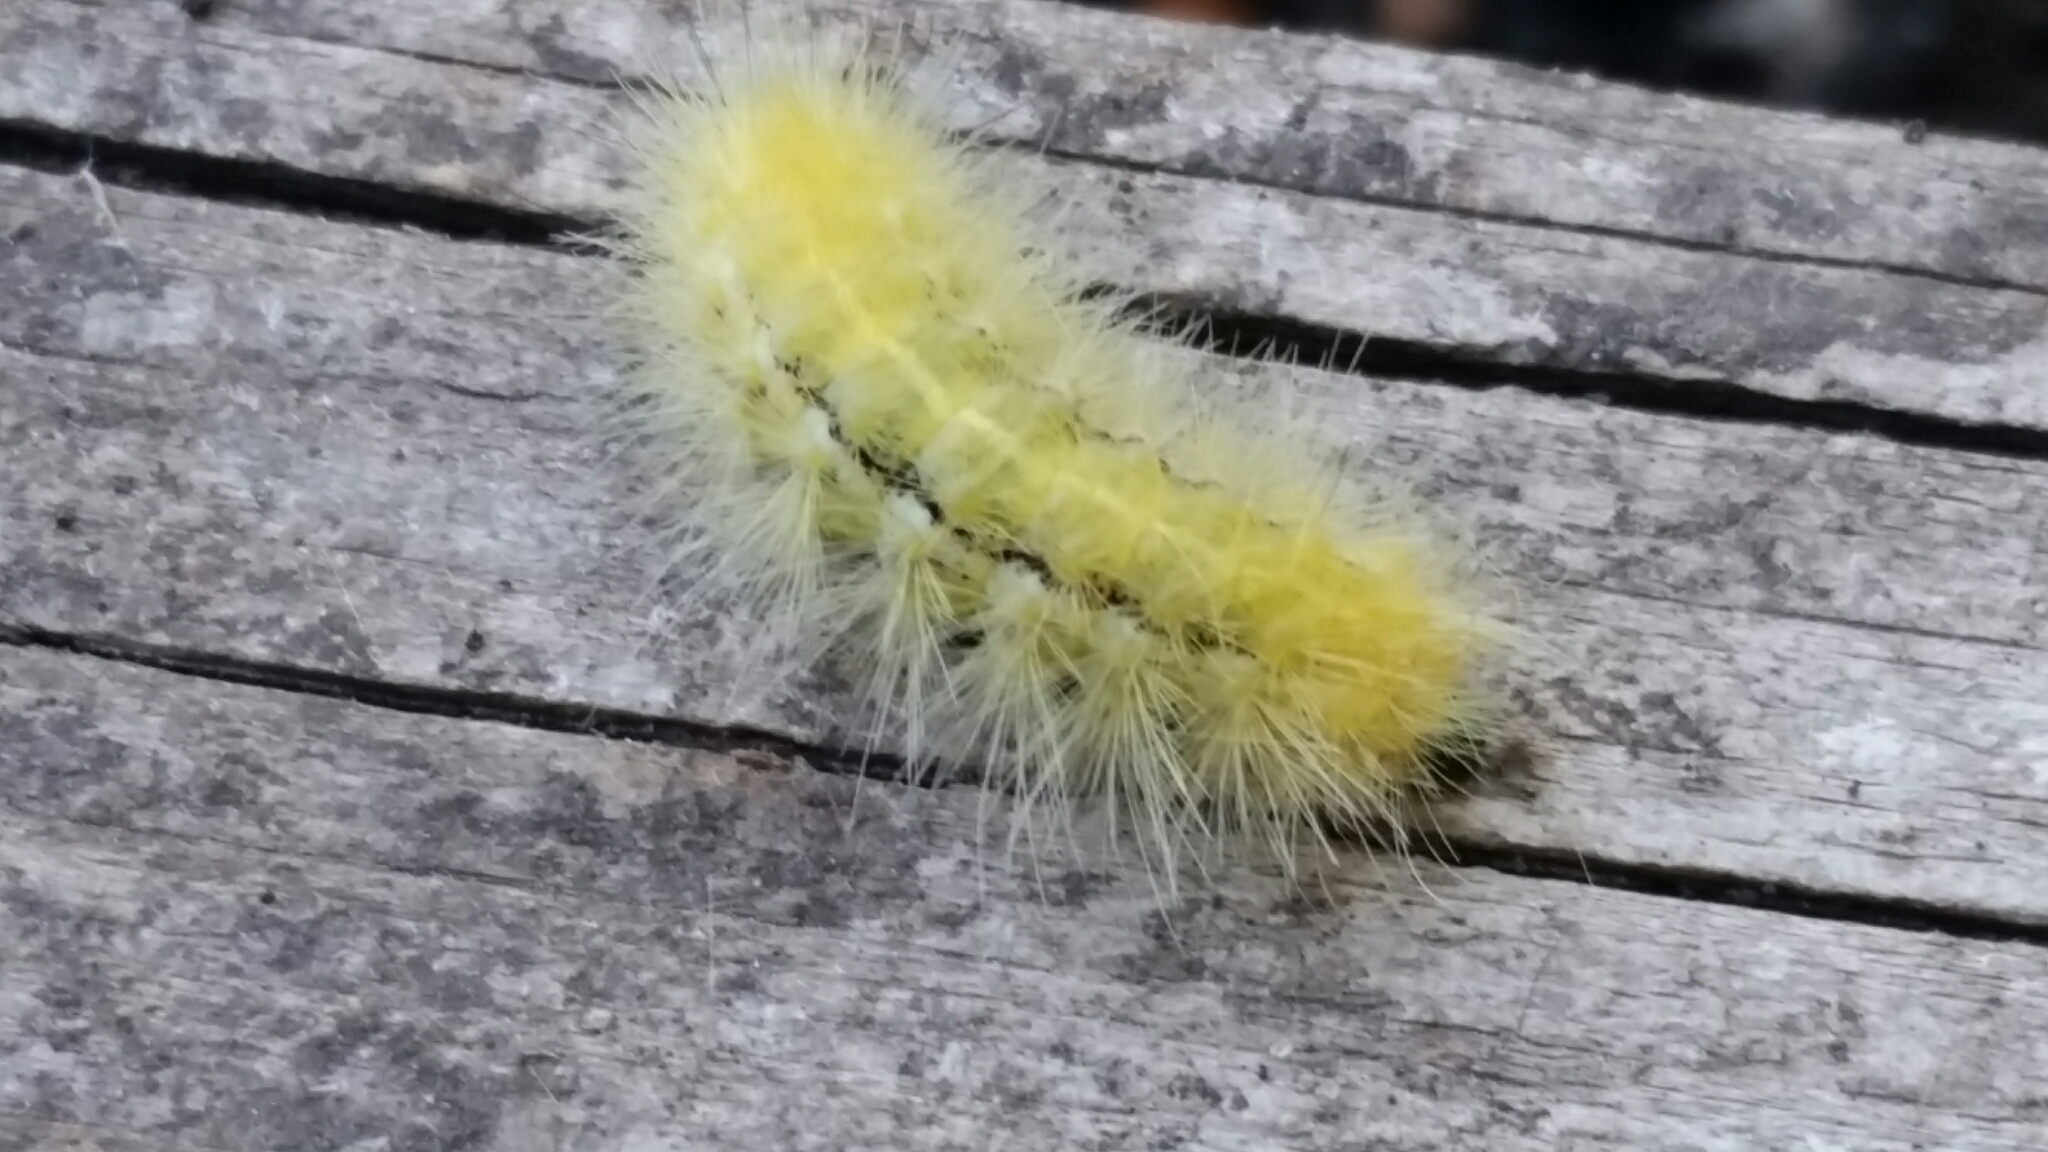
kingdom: Animalia
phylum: Arthropoda
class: Insecta
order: Lepidoptera
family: Erebidae
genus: Spilosoma
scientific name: Spilosoma virginica
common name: Virginia tiger moth
